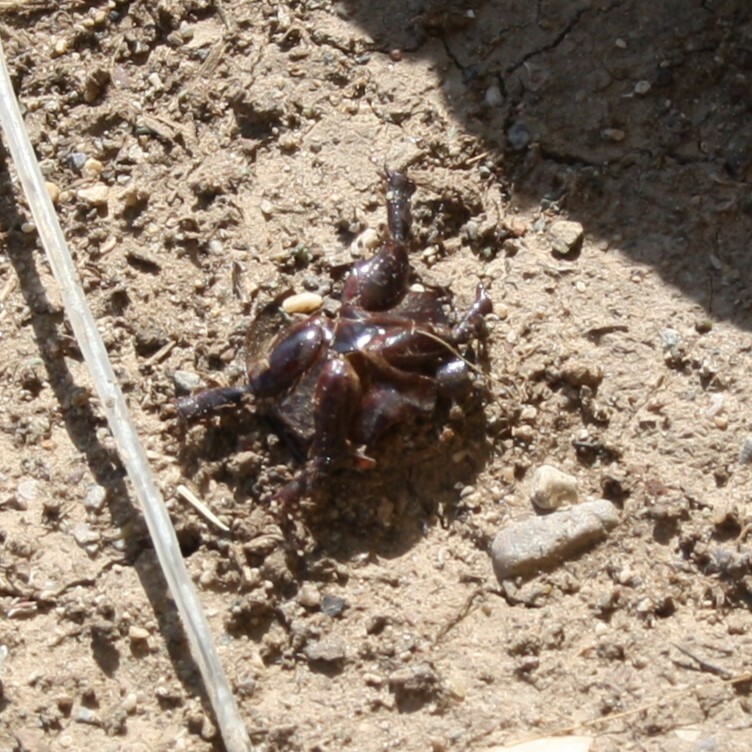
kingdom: Animalia
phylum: Arthropoda
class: Insecta
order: Coleoptera
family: Scarabaeidae
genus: Phyllognathus
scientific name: Phyllognathus excavatus
